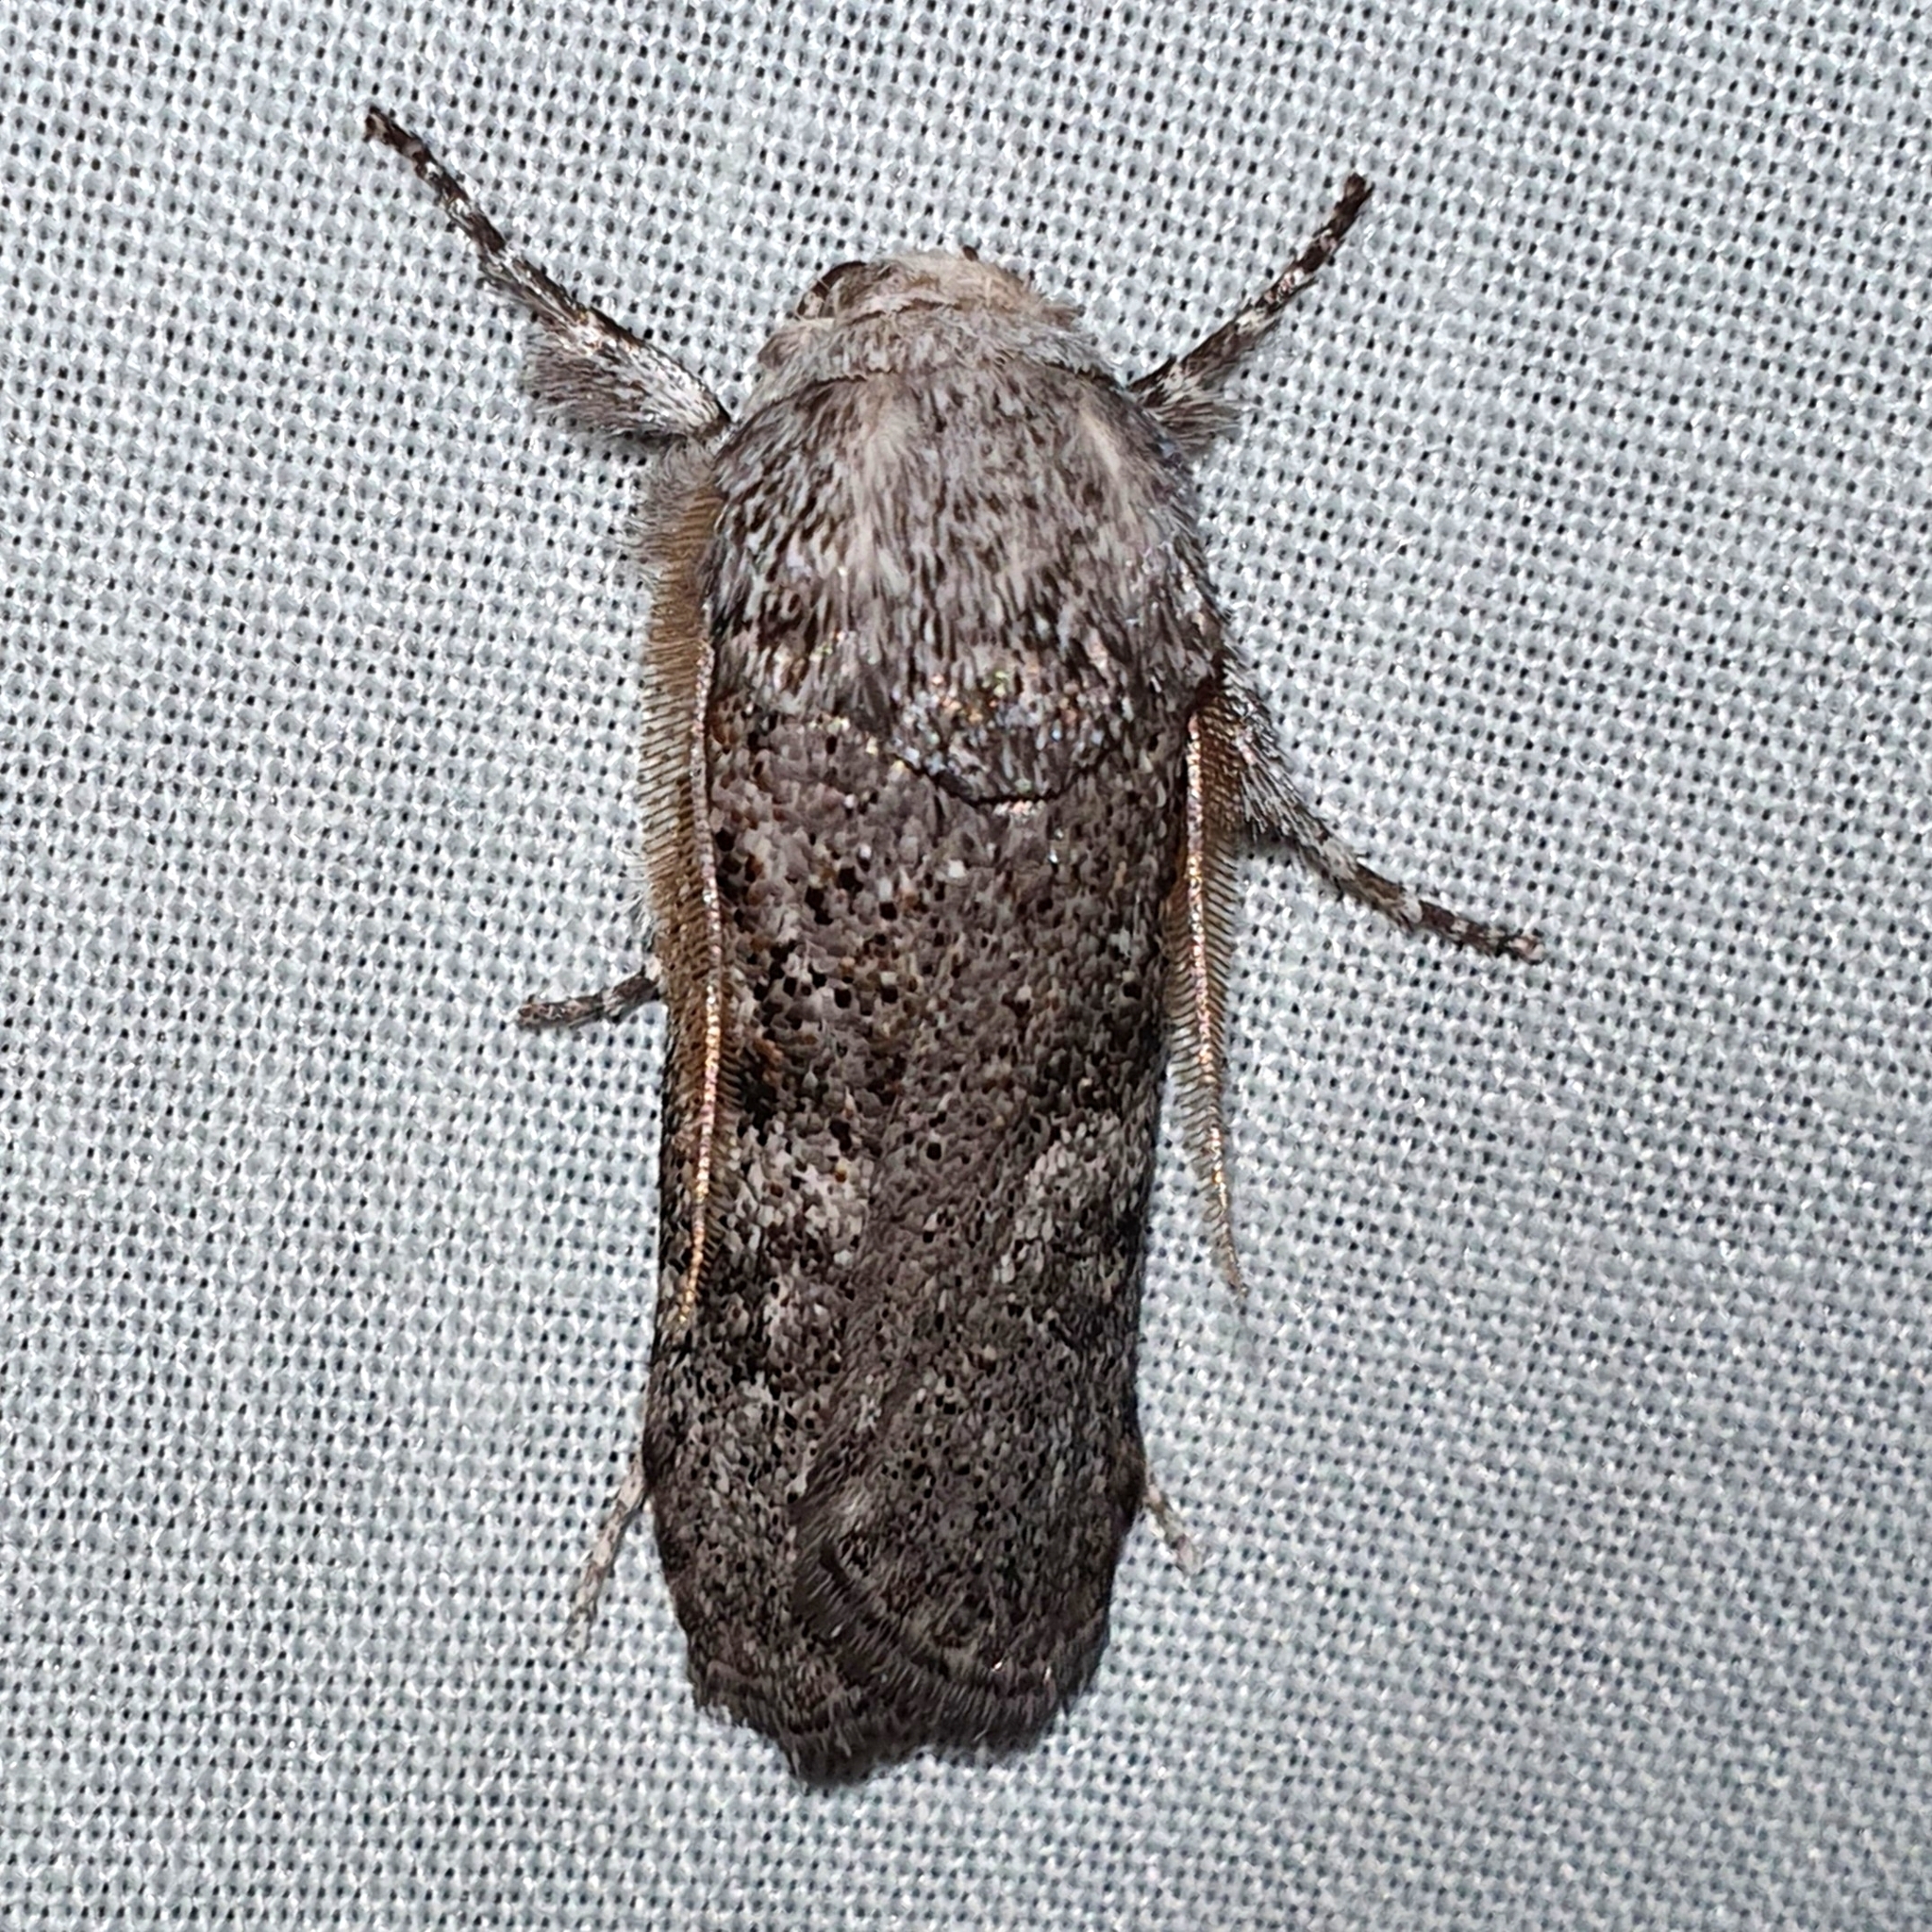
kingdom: Animalia
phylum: Arthropoda
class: Insecta
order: Lepidoptera
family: Xyloryctidae
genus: Cryptophasa
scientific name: Cryptophasa irrorata
